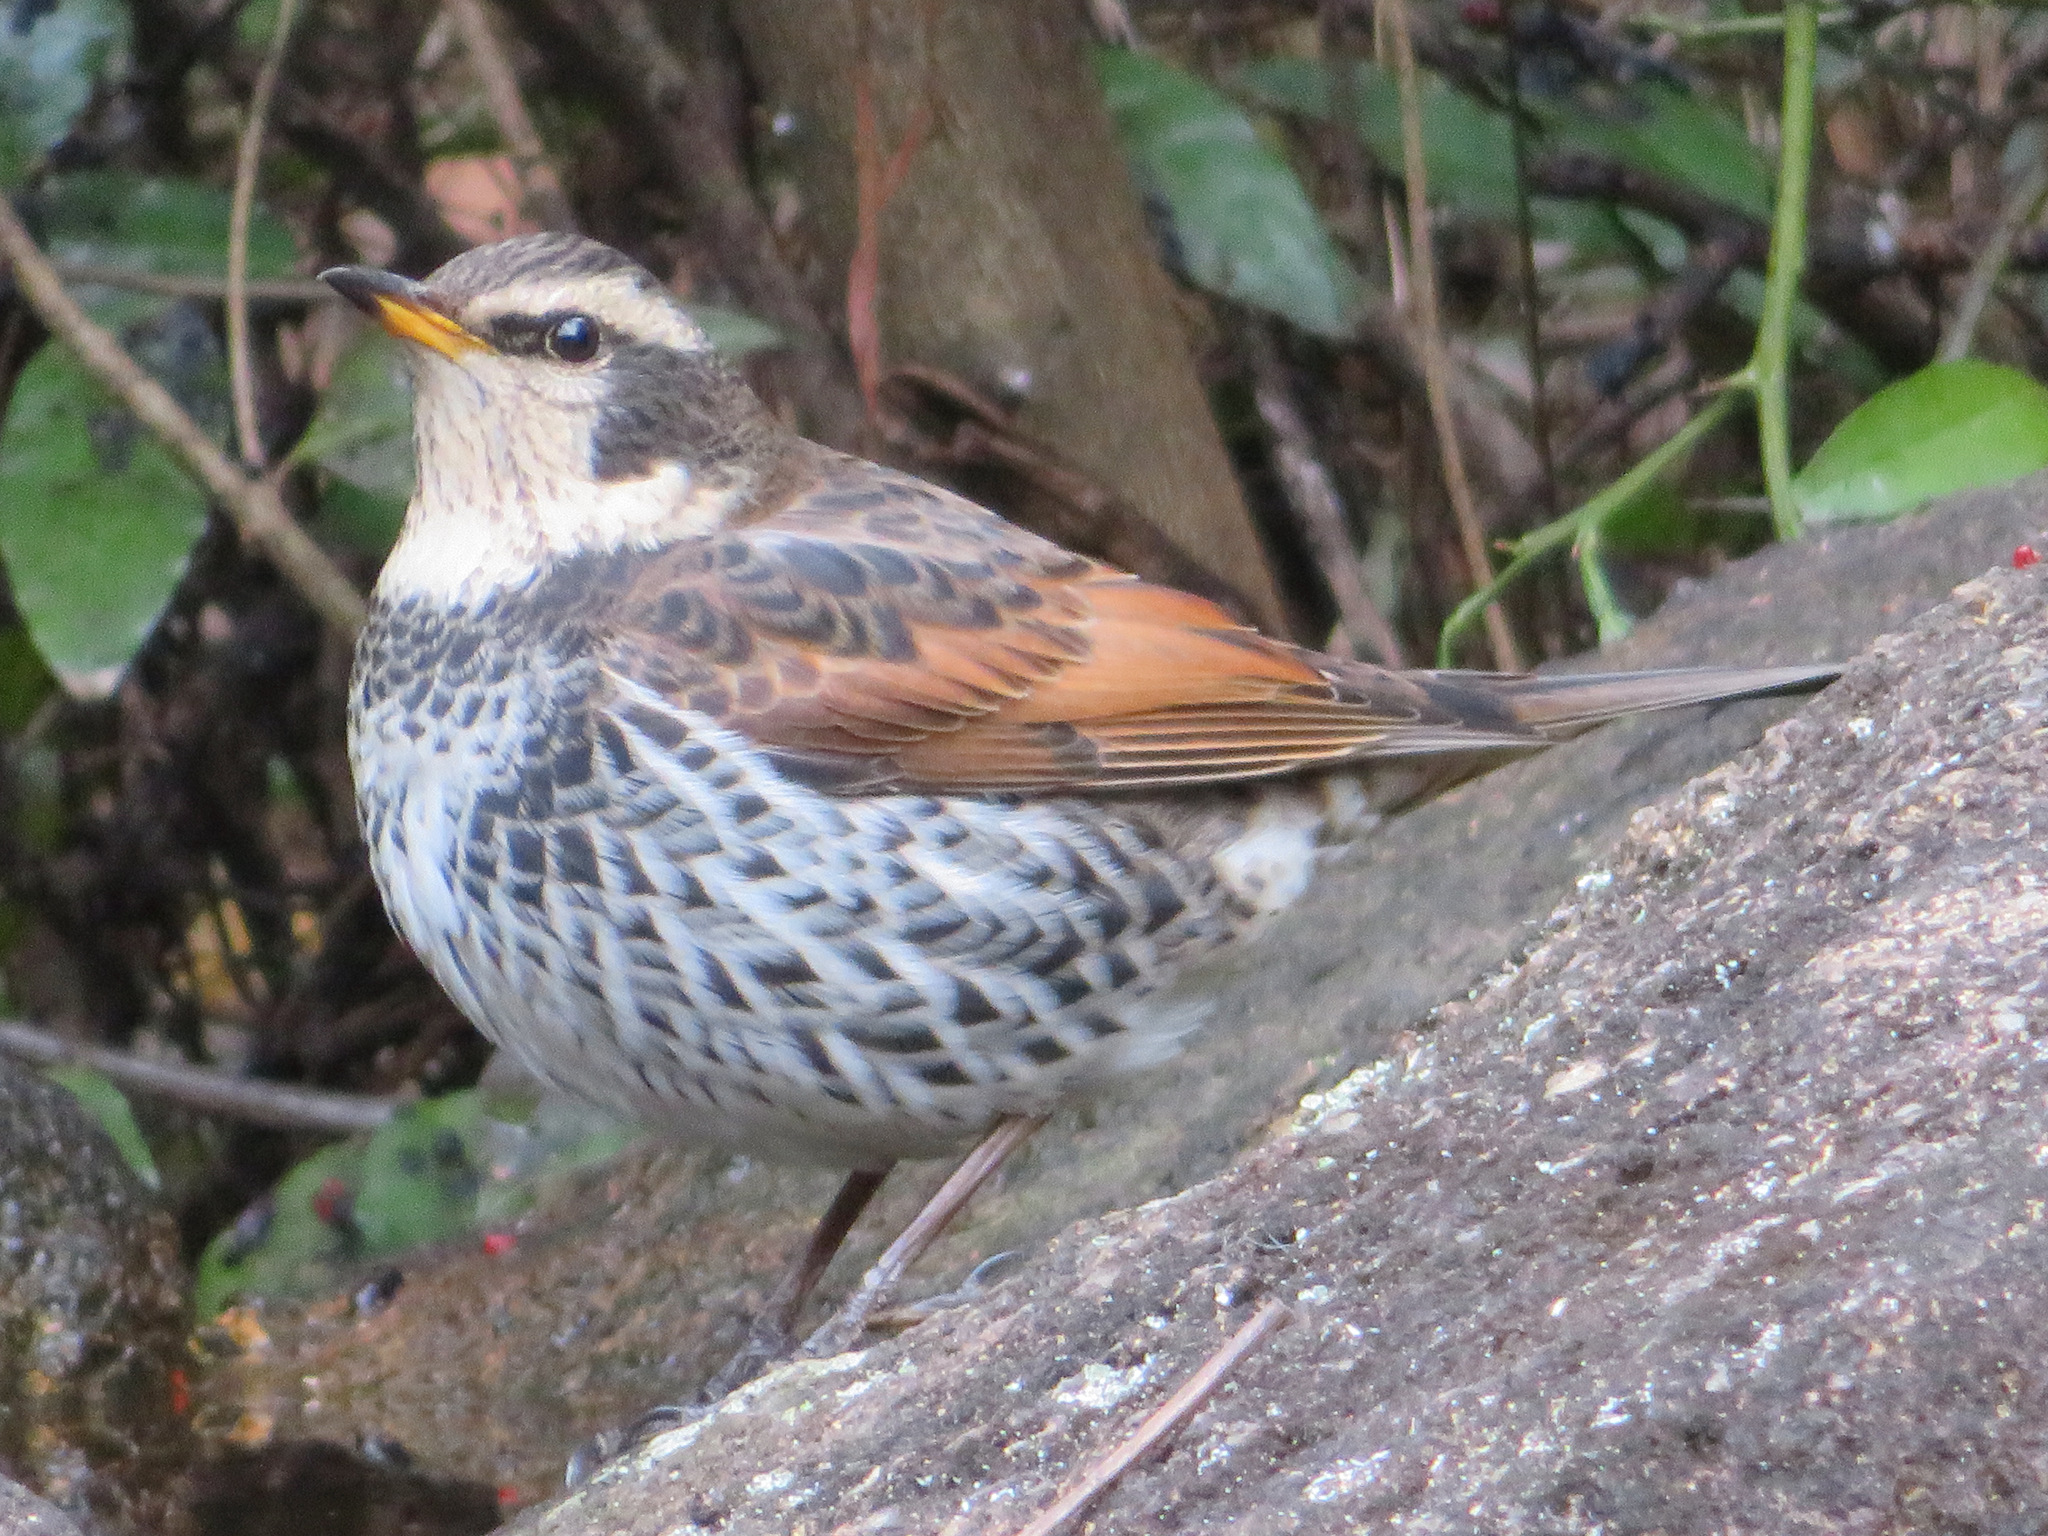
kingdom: Animalia
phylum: Chordata
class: Aves
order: Passeriformes
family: Turdidae
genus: Turdus
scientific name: Turdus eunomus
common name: Dusky thrush
